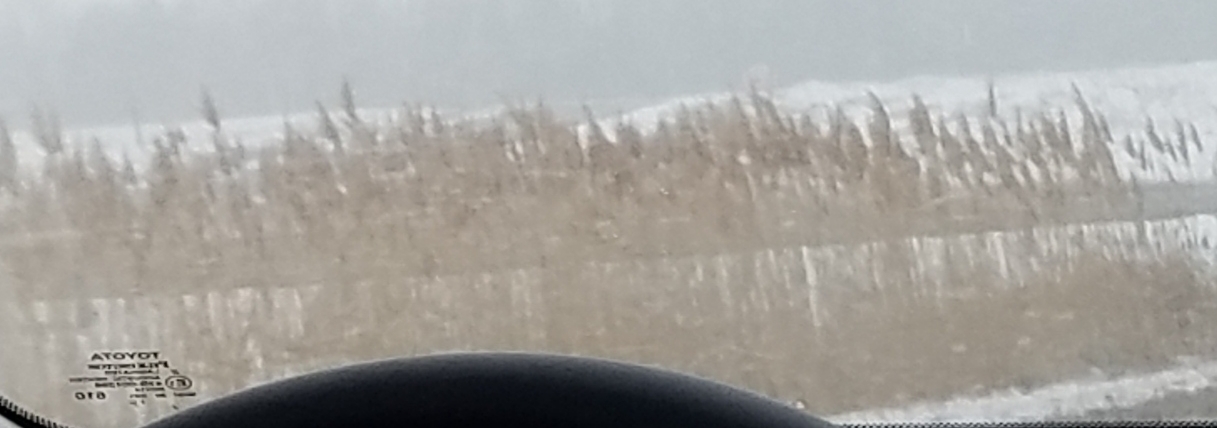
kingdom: Plantae
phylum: Tracheophyta
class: Liliopsida
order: Poales
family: Poaceae
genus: Phragmites
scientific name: Phragmites australis
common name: Common reed
